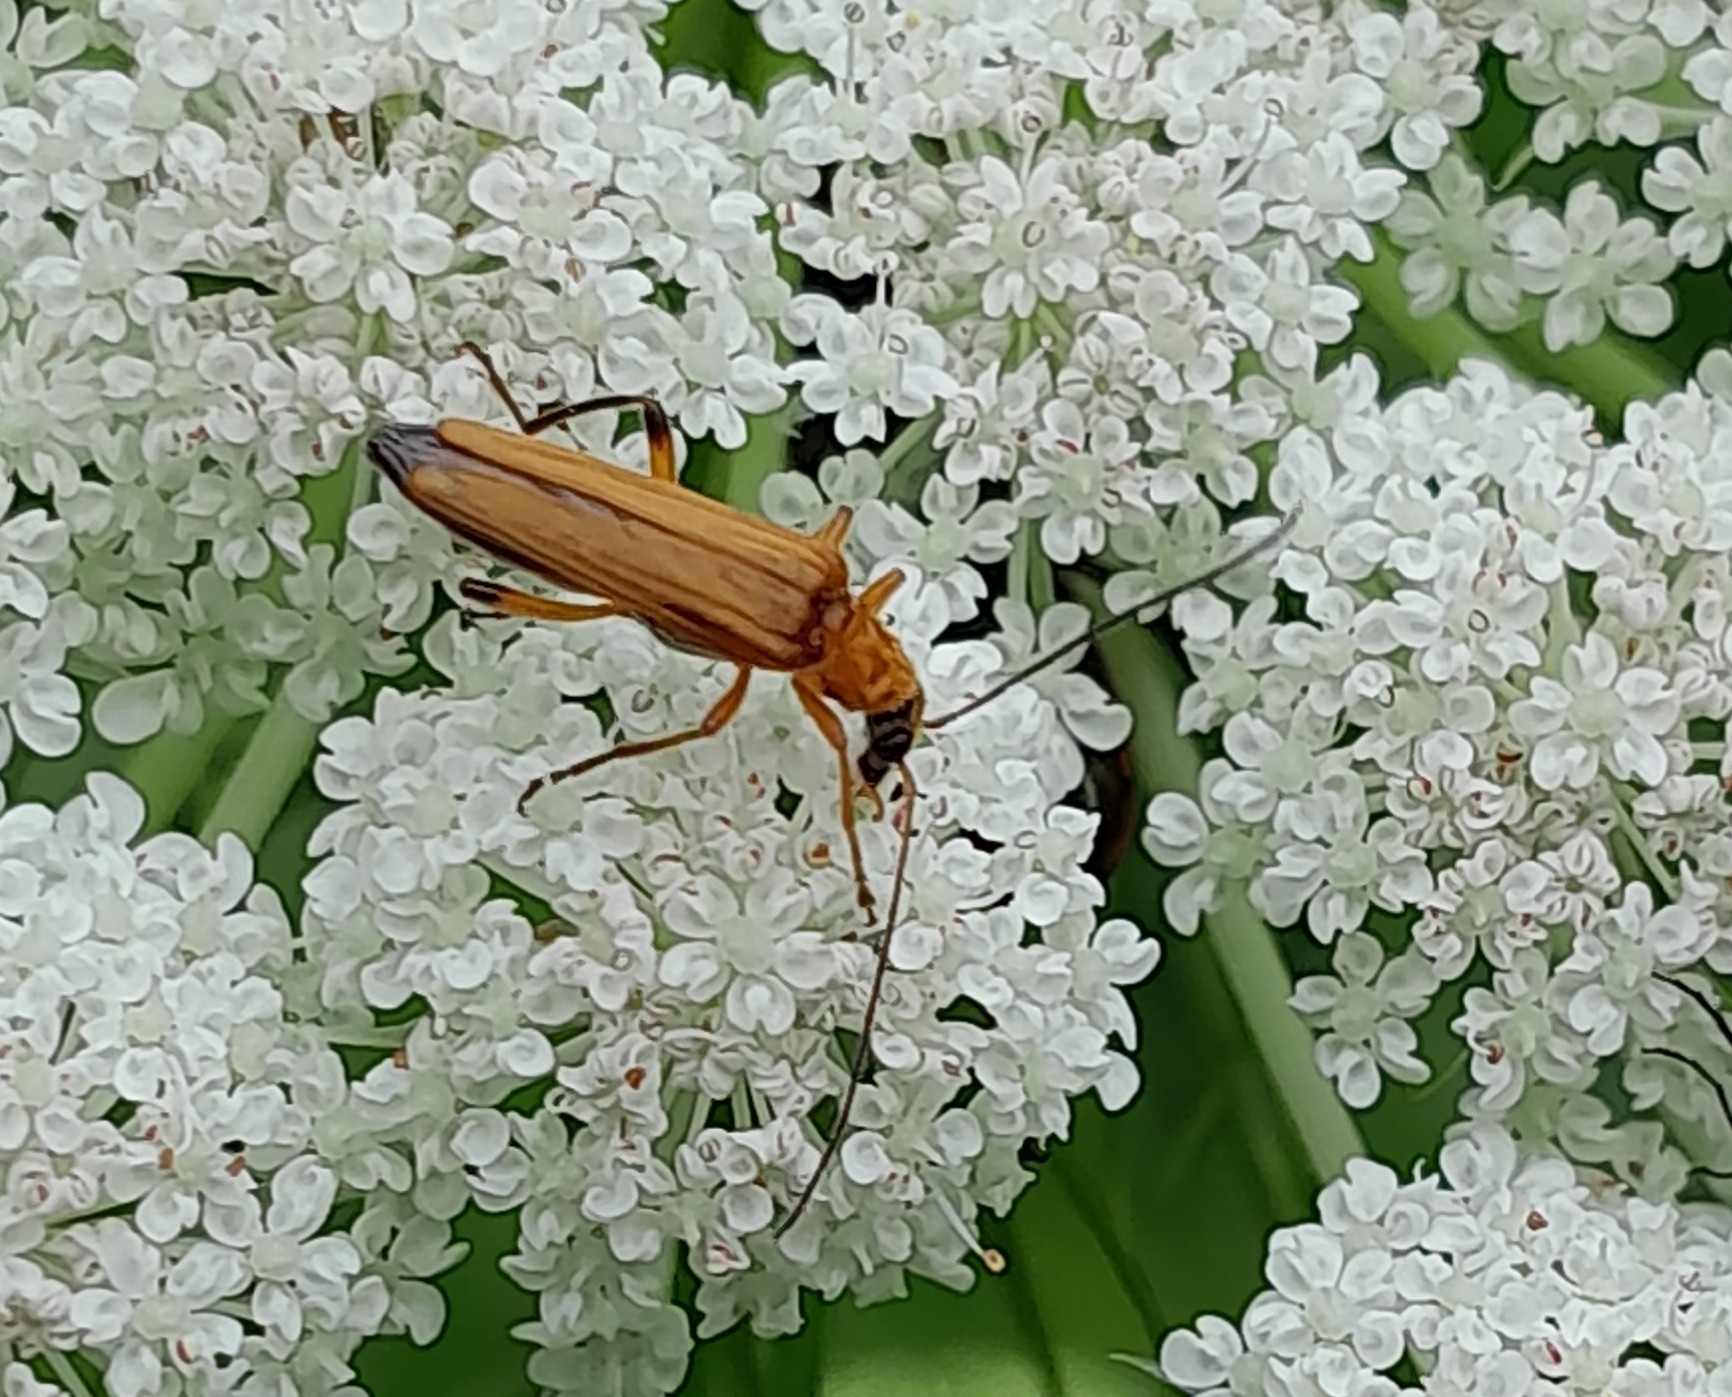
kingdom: Animalia
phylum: Arthropoda
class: Insecta
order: Coleoptera
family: Oedemeridae
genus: Oedemera
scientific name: Oedemera podagrariae
